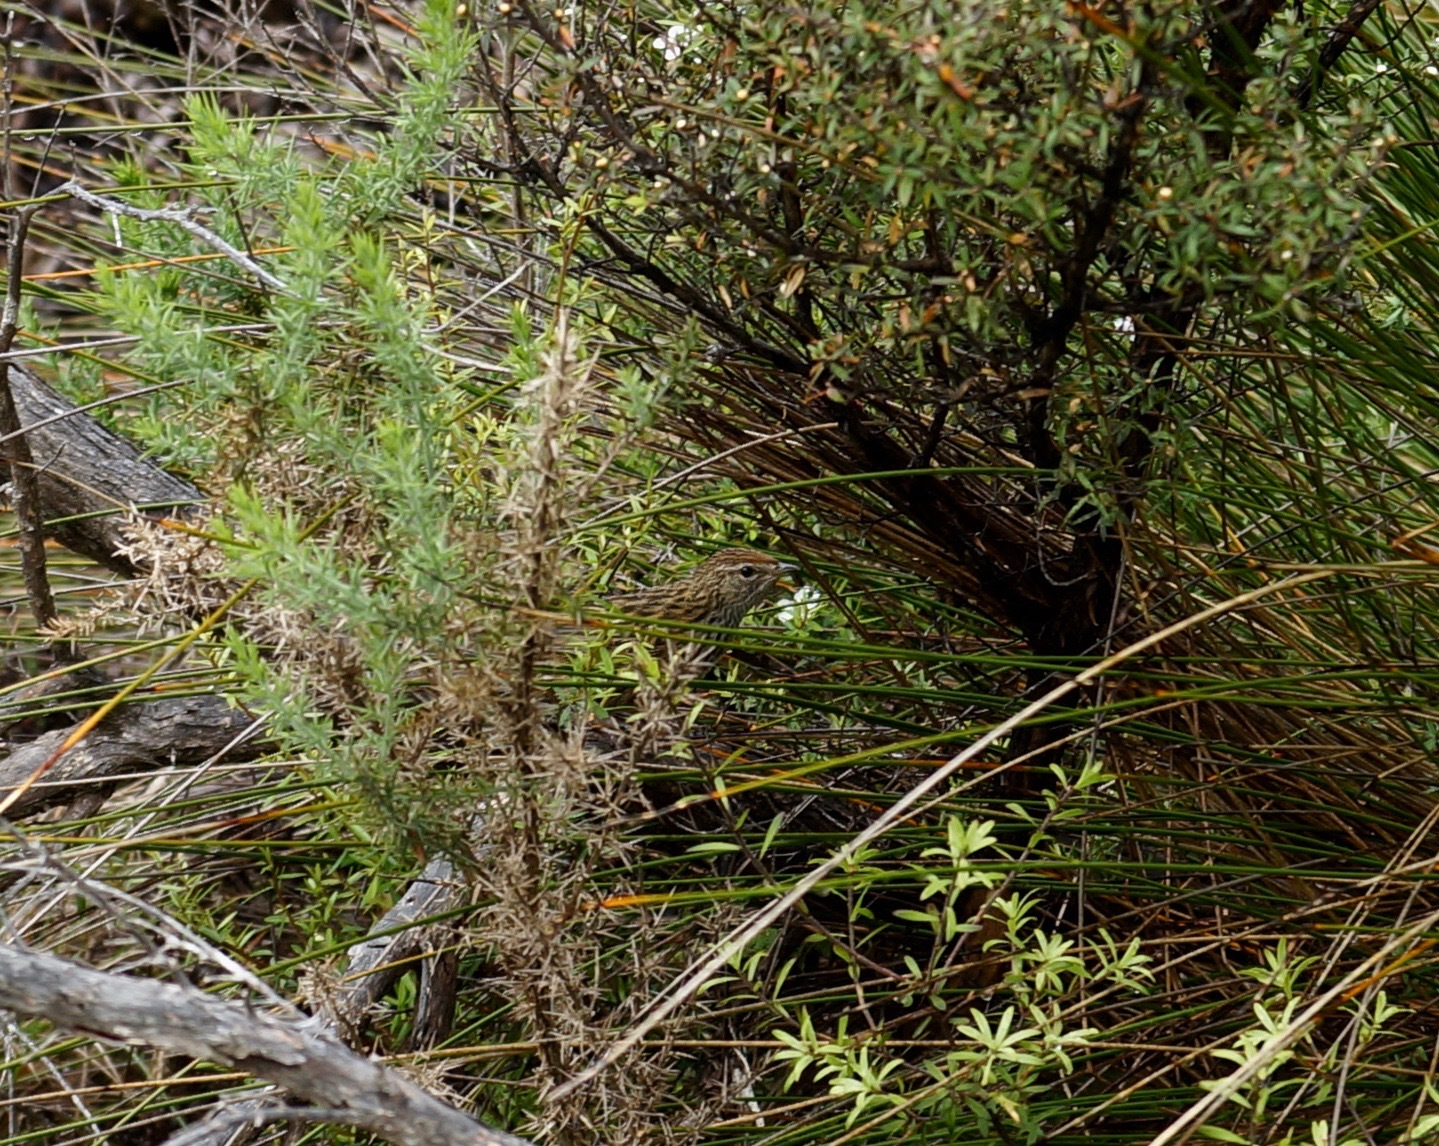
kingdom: Animalia
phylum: Chordata
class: Aves
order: Passeriformes
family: Locustellidae
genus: Poodytes
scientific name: Poodytes punctatus
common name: New zealand fernbird
